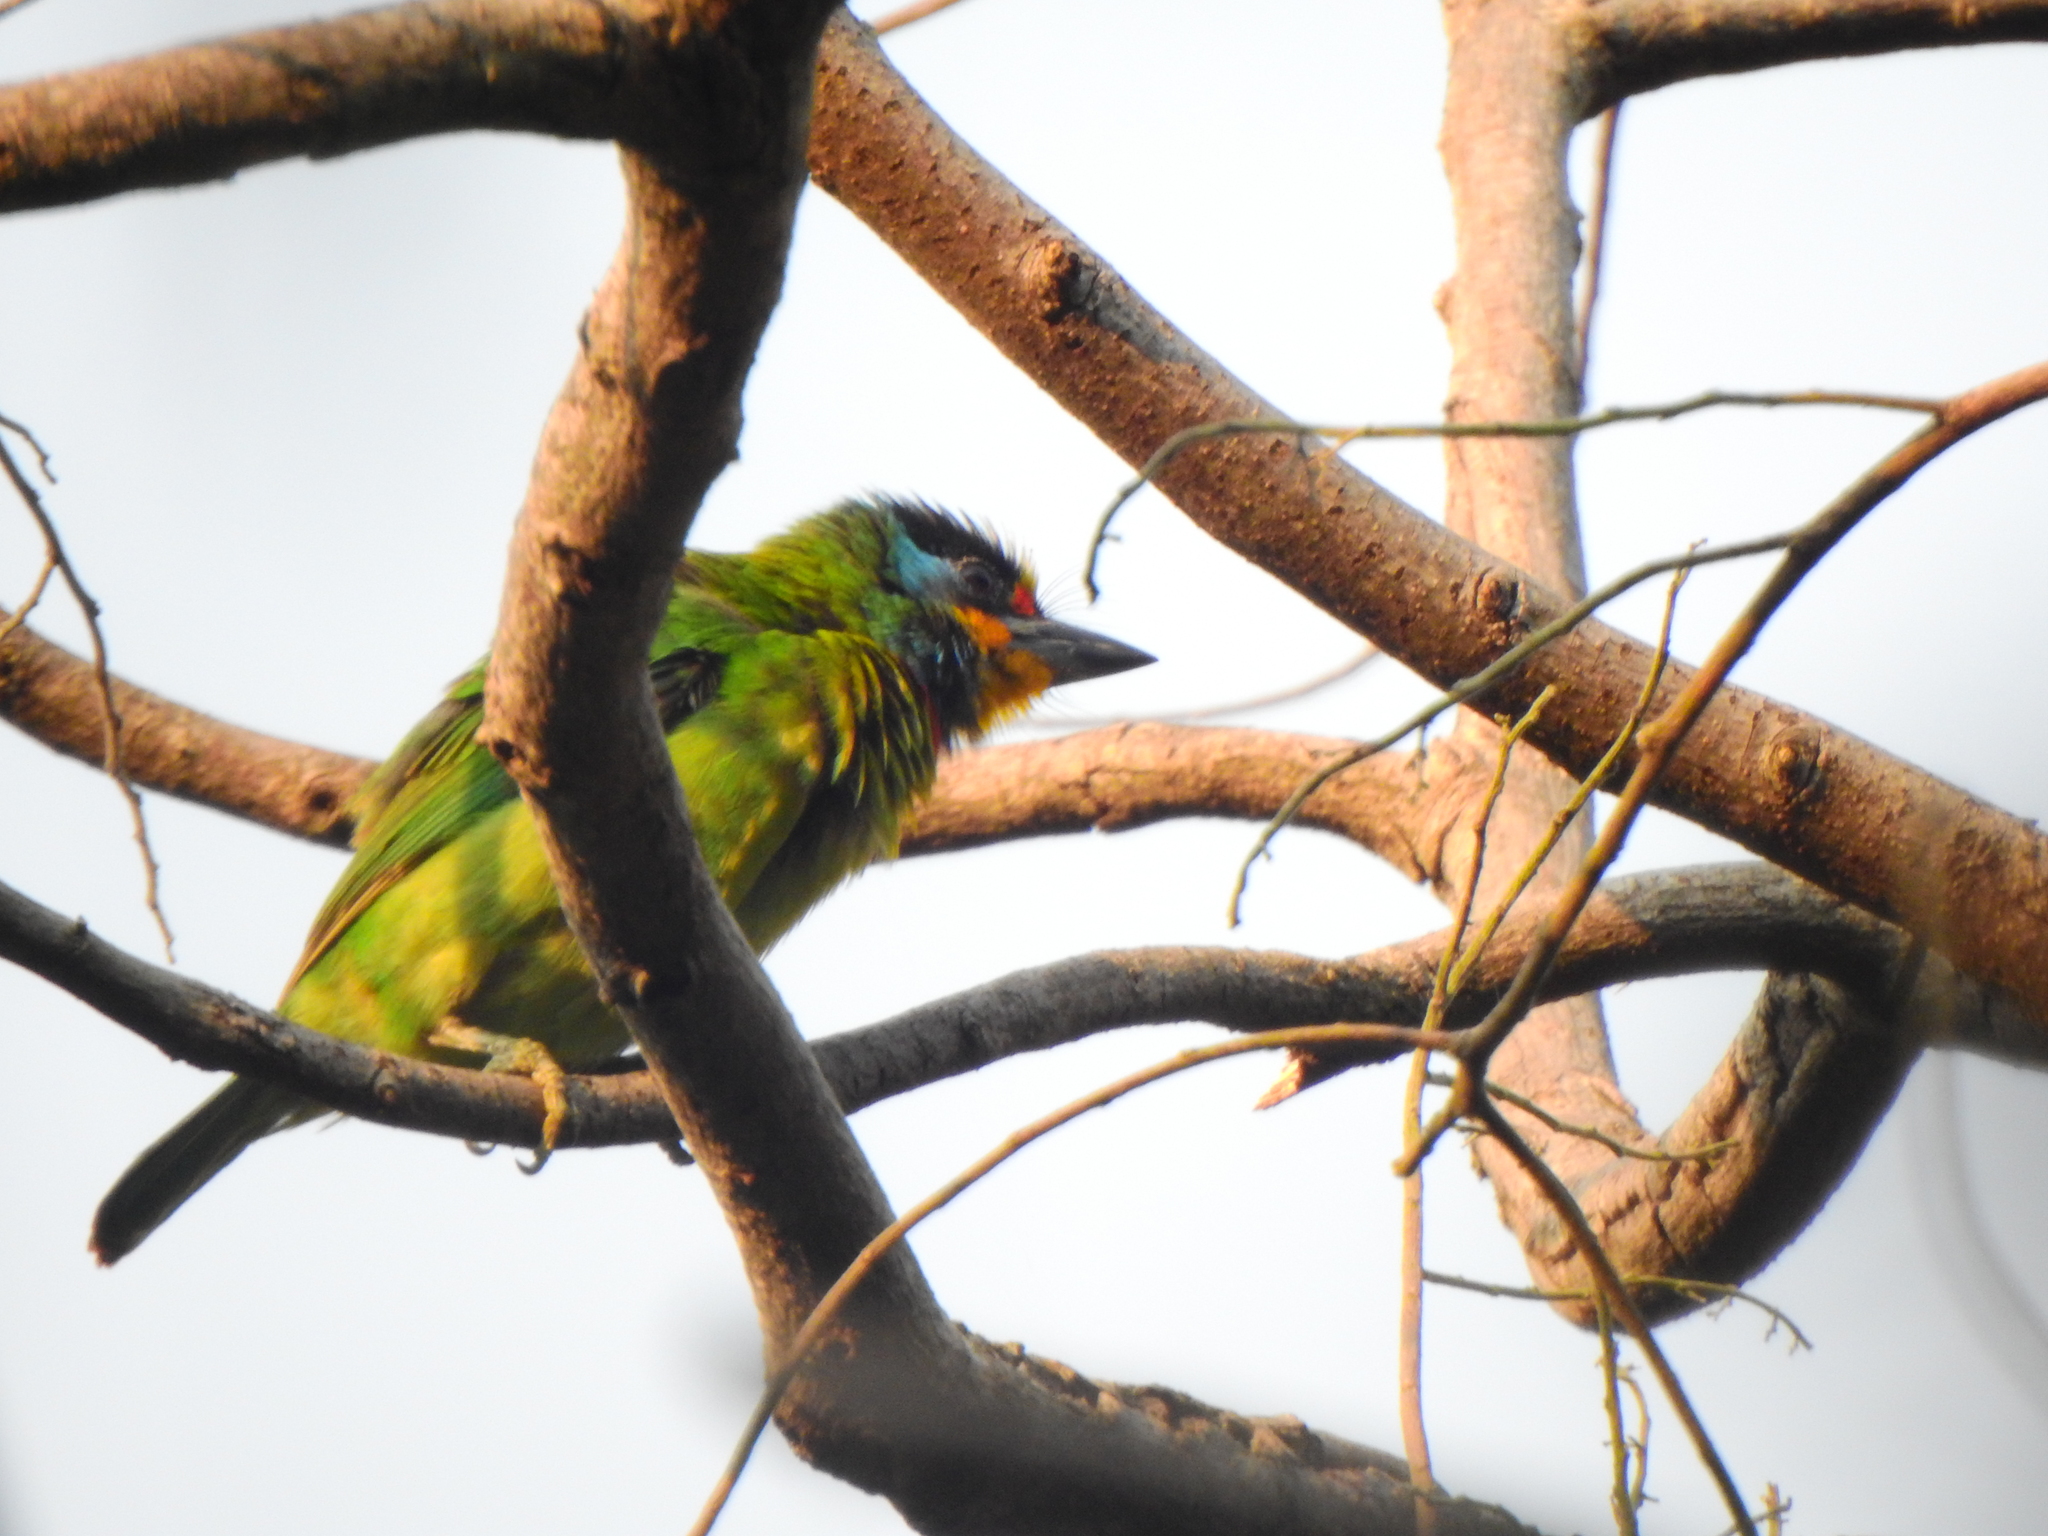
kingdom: Animalia
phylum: Chordata
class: Aves
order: Piciformes
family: Megalaimidae
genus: Psilopogon
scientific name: Psilopogon nuchalis
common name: Taiwan barbet
